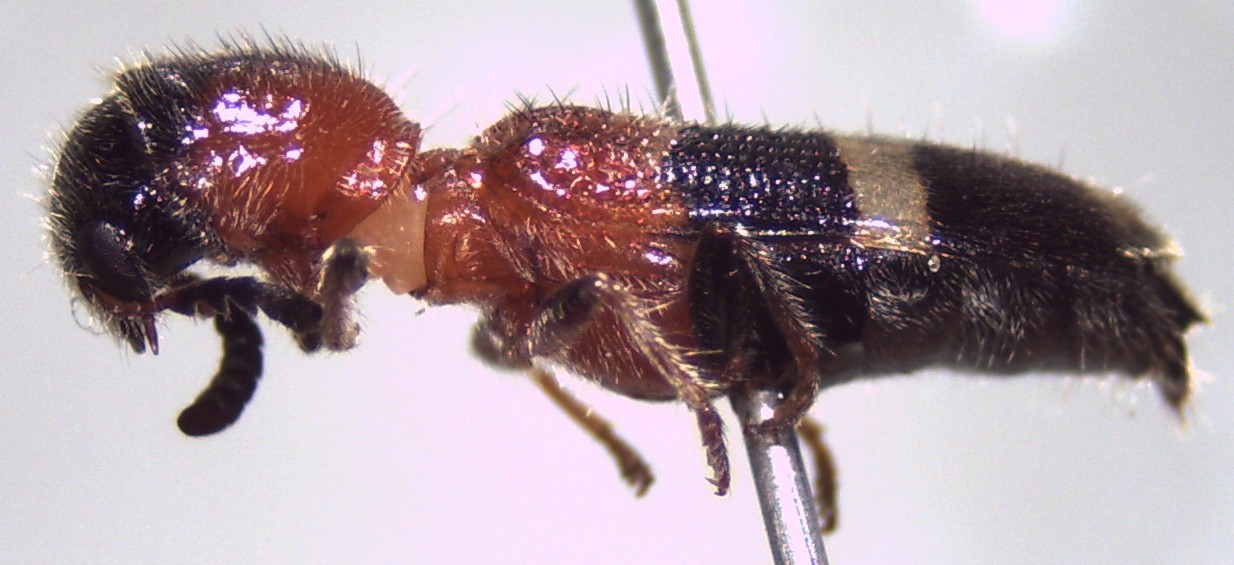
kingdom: Animalia
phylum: Arthropoda
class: Insecta
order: Coleoptera
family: Cleridae
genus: Tilloidea
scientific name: Tilloidea notata
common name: Checkered beetle
